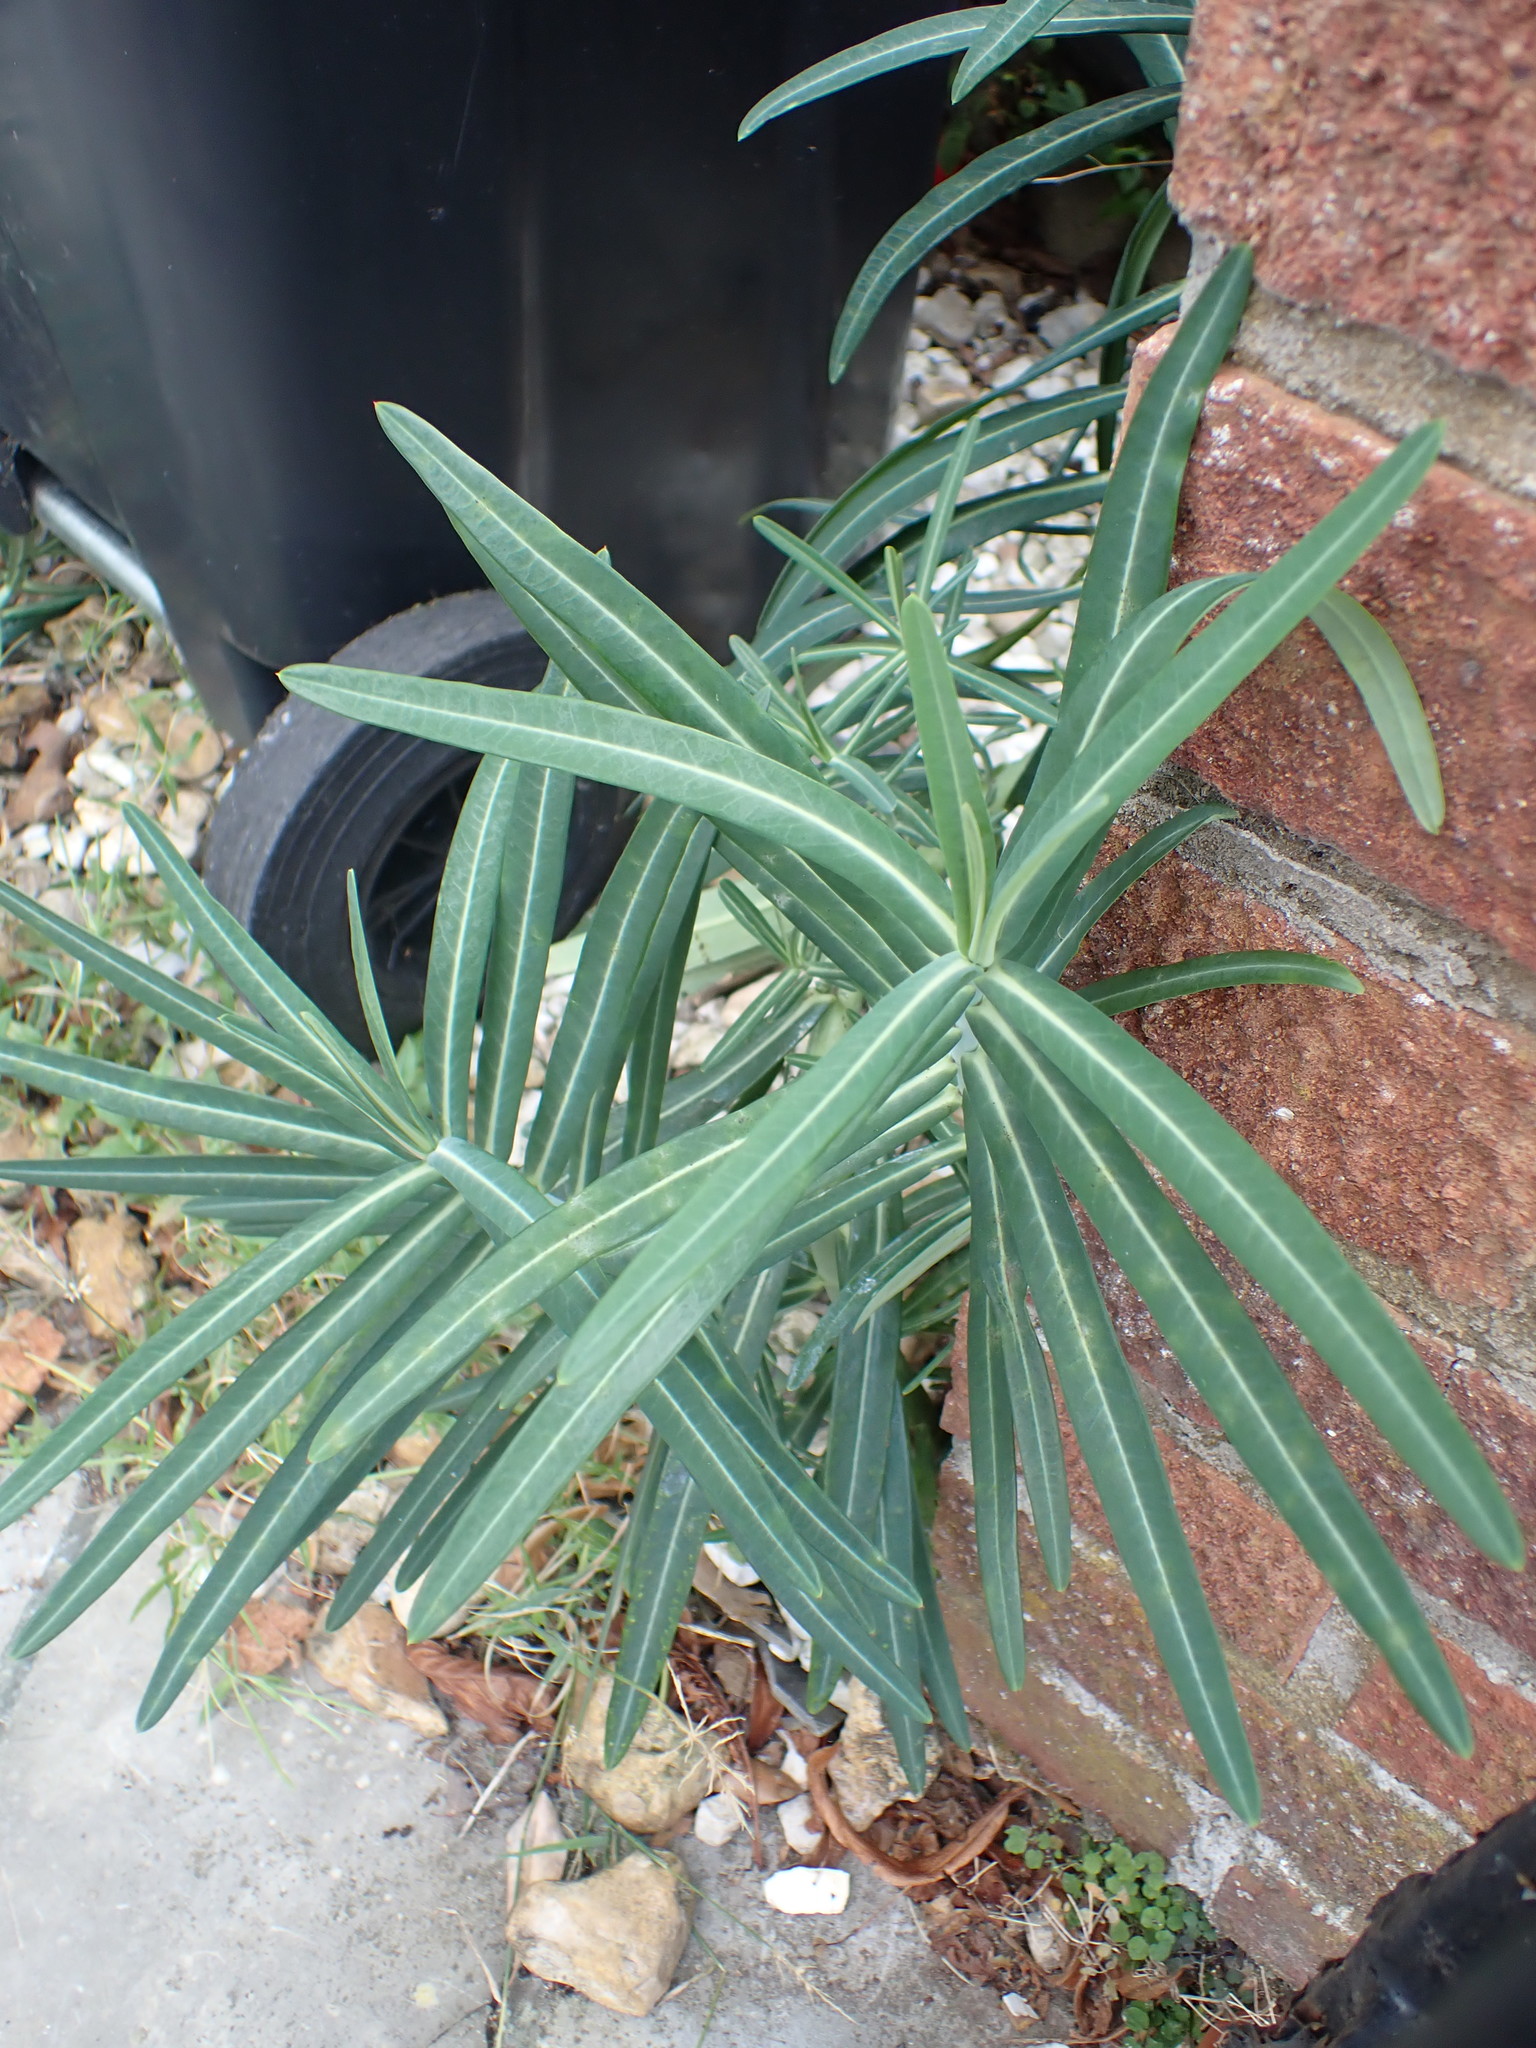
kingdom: Plantae
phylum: Tracheophyta
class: Magnoliopsida
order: Malpighiales
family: Euphorbiaceae
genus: Euphorbia
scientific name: Euphorbia lathyris
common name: Caper spurge
